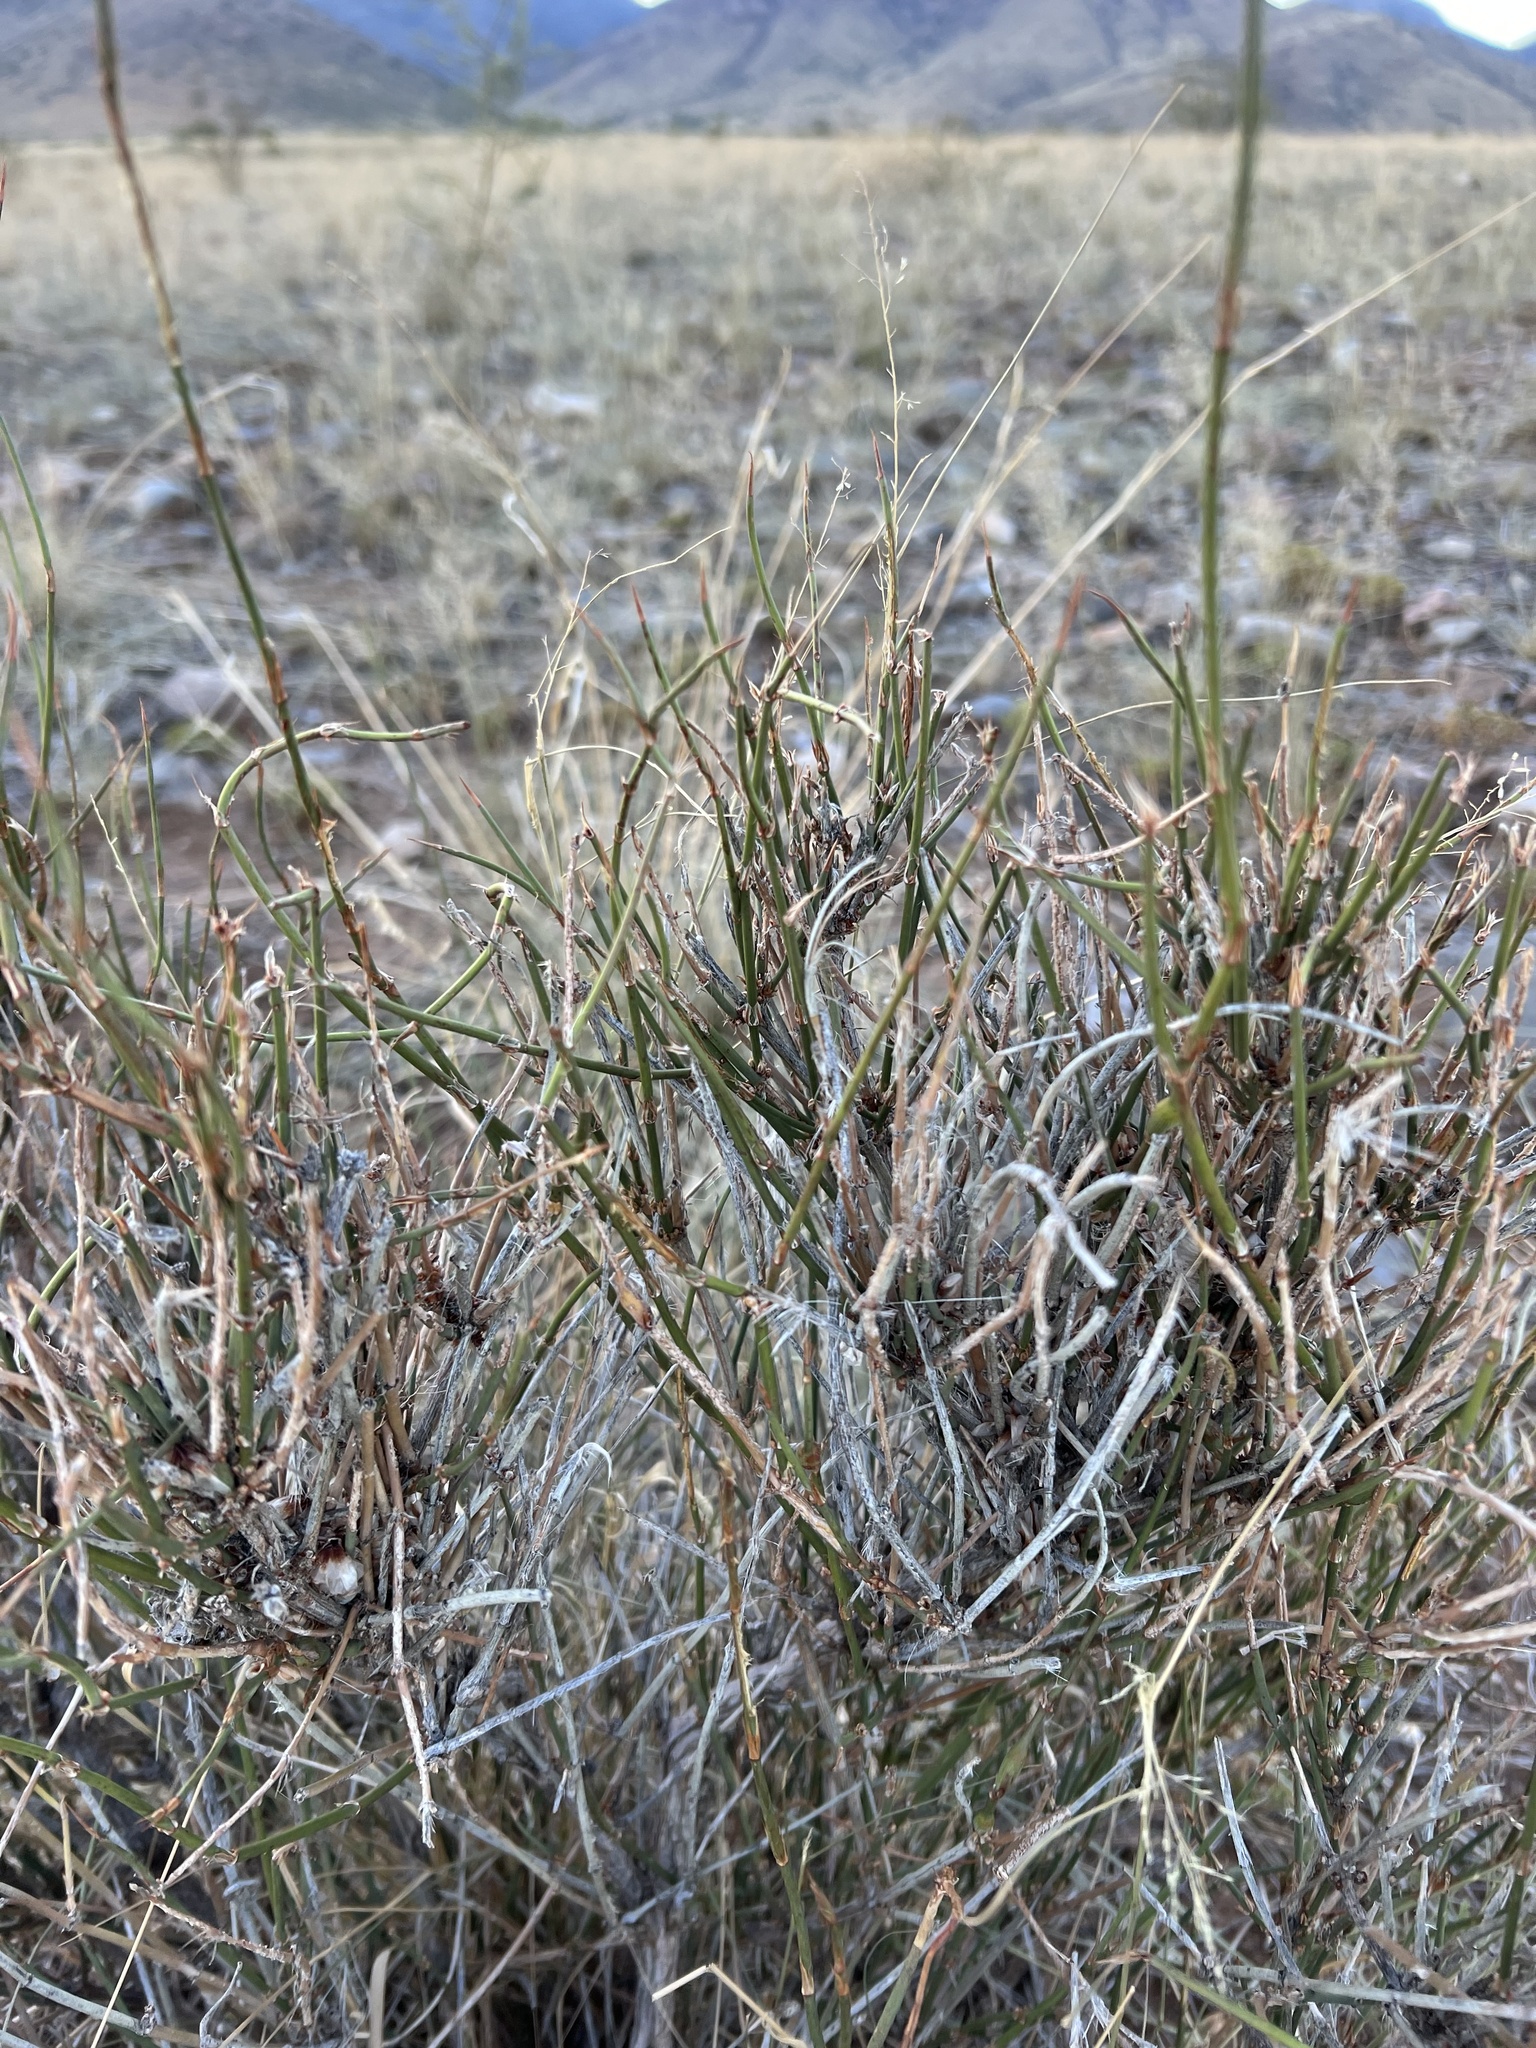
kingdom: Plantae
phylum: Tracheophyta
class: Gnetopsida
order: Ephedrales
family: Ephedraceae
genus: Ephedra
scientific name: Ephedra trifurca
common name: Mexican-tea
